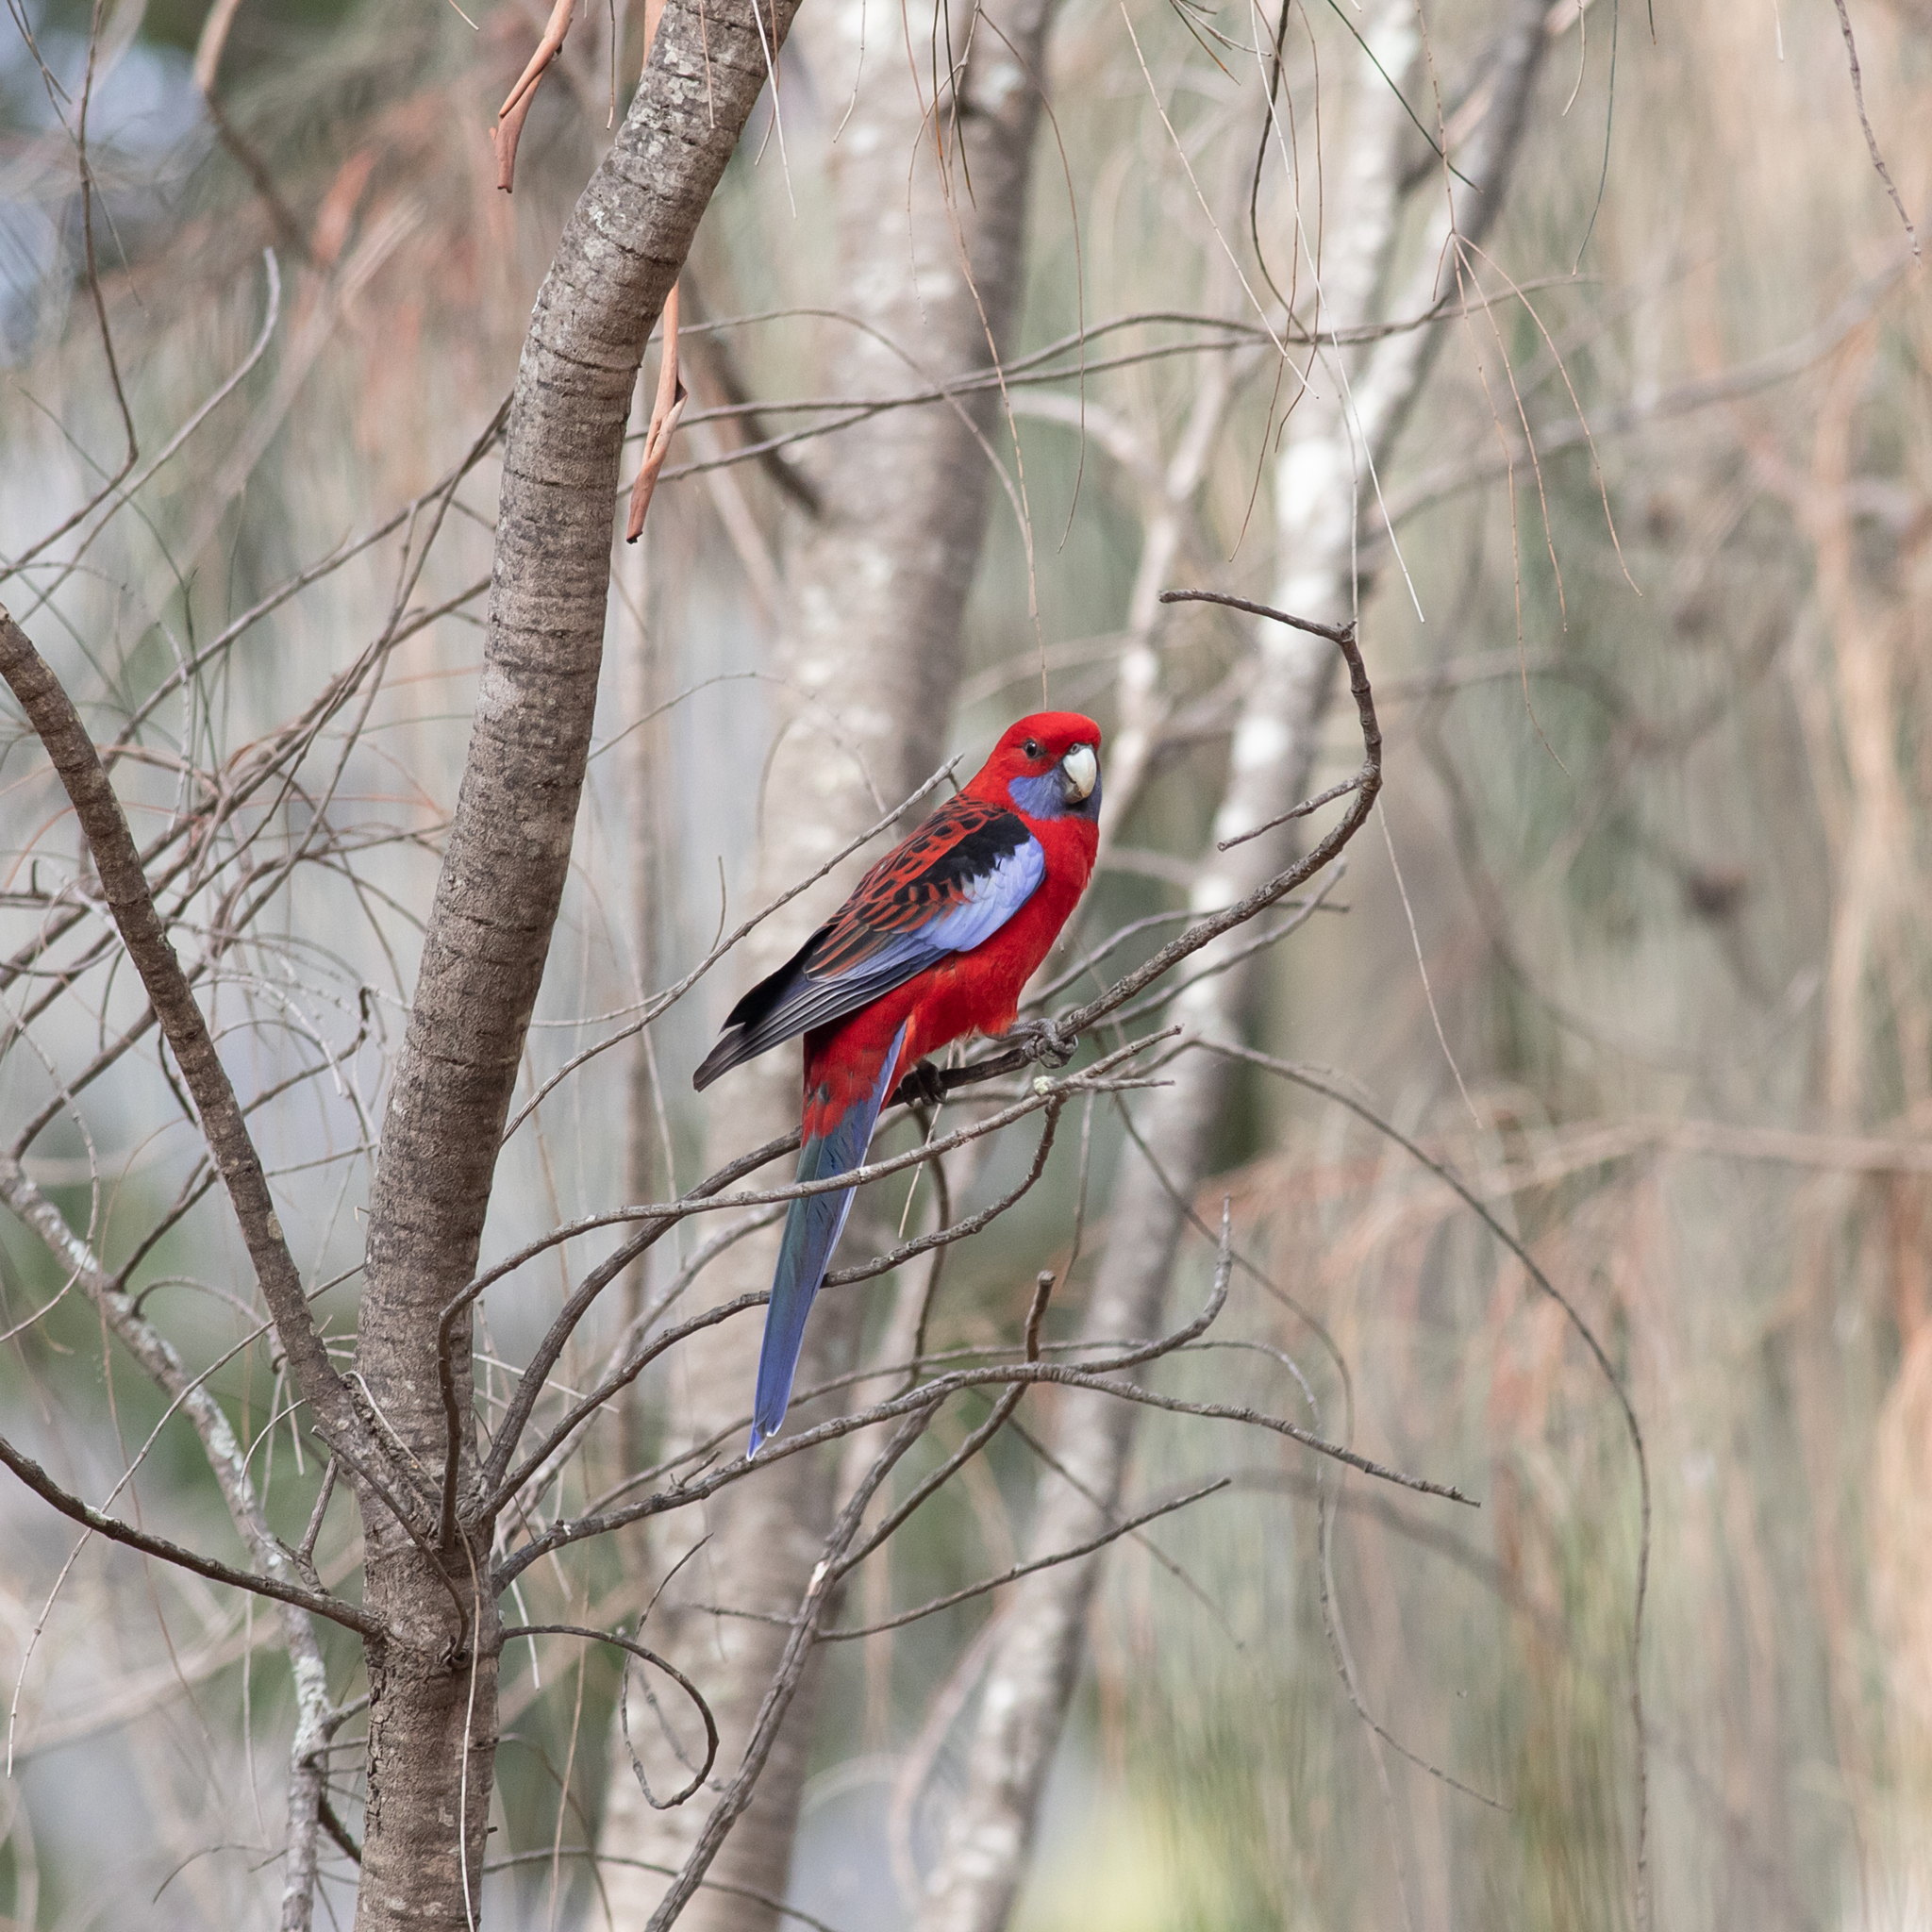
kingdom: Animalia
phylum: Chordata
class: Aves
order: Psittaciformes
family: Psittacidae
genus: Platycercus
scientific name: Platycercus elegans
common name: Crimson rosella
